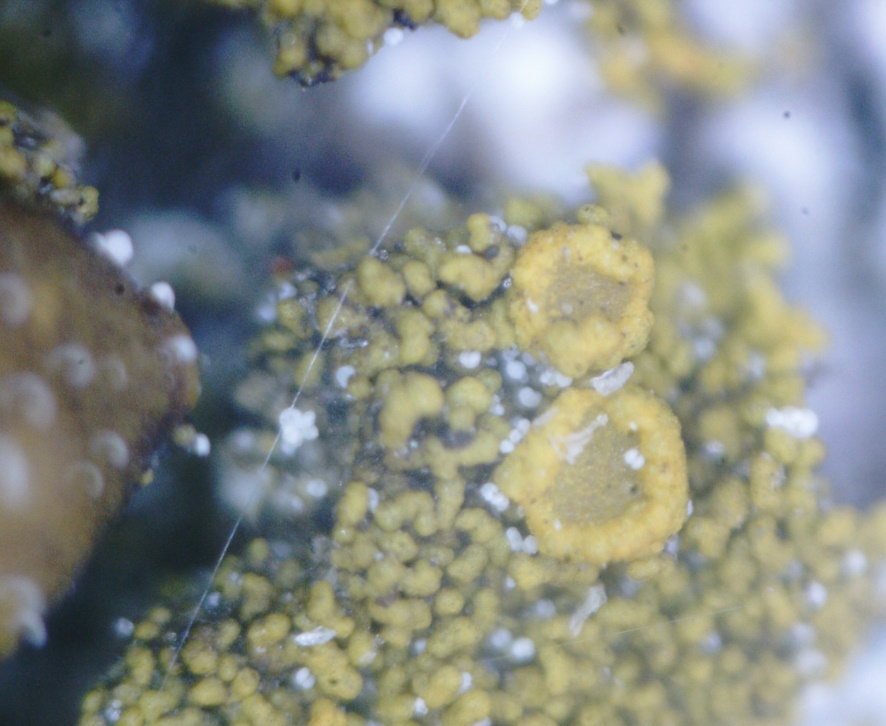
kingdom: Fungi
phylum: Ascomycota
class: Candelariomycetes
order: Candelariales
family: Candelariaceae
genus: Candelariella
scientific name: Candelariella vitellina
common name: Common goldspeck
